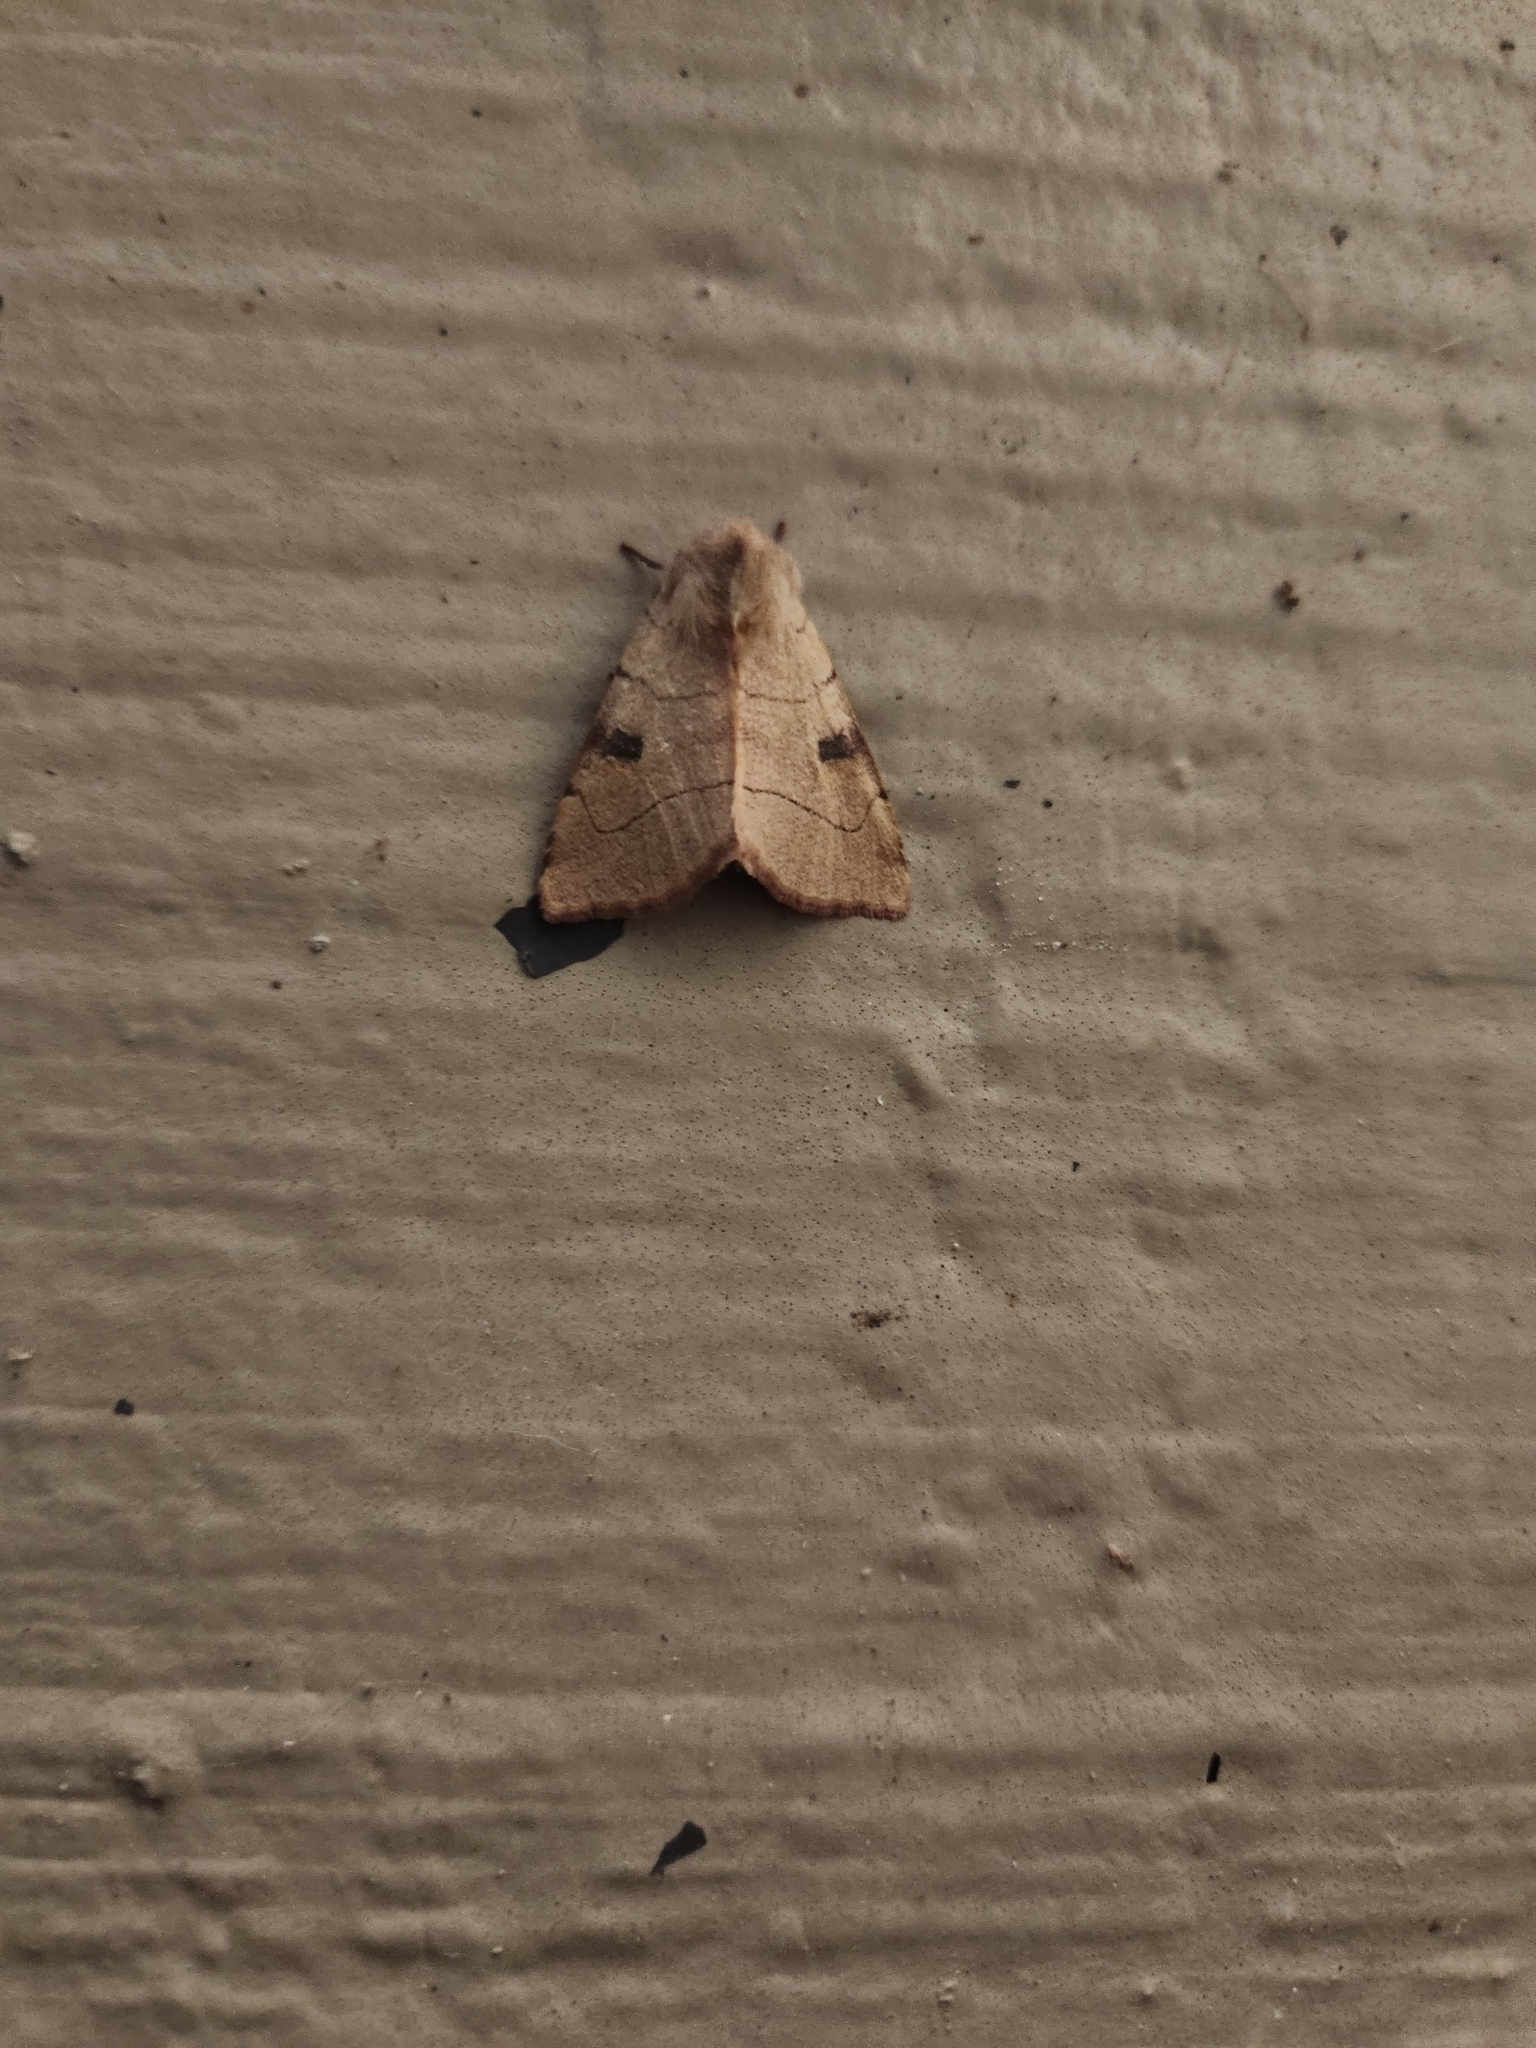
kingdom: Animalia
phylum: Arthropoda
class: Insecta
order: Lepidoptera
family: Noctuidae
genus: Choephora
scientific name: Choephora fungorum
